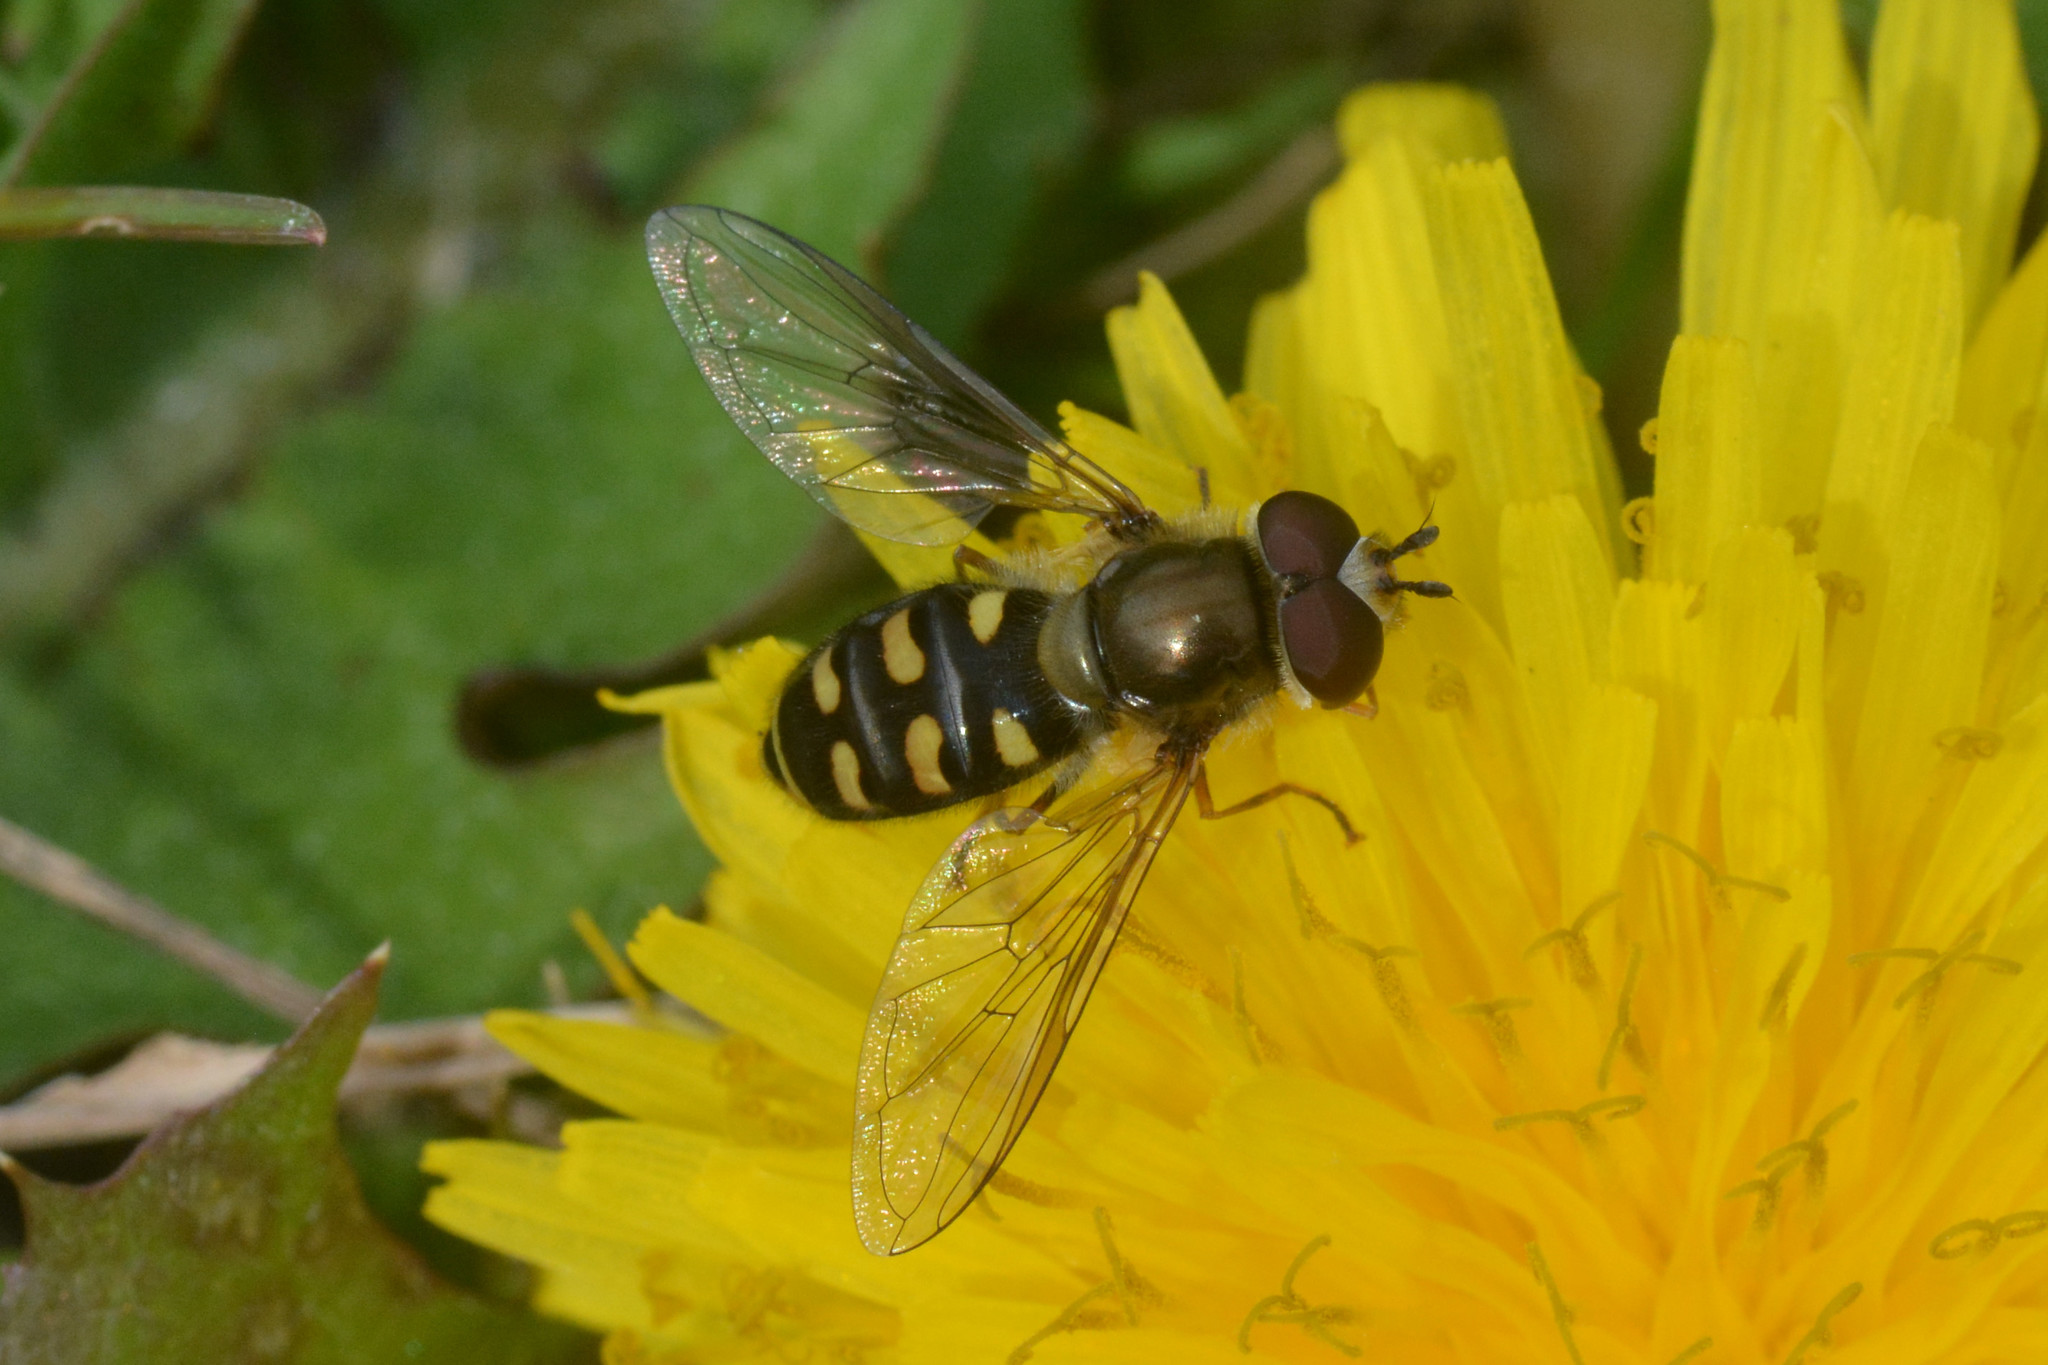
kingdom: Animalia
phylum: Arthropoda
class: Insecta
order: Diptera
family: Syrphidae
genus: Eupeodes
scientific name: Eupeodes
